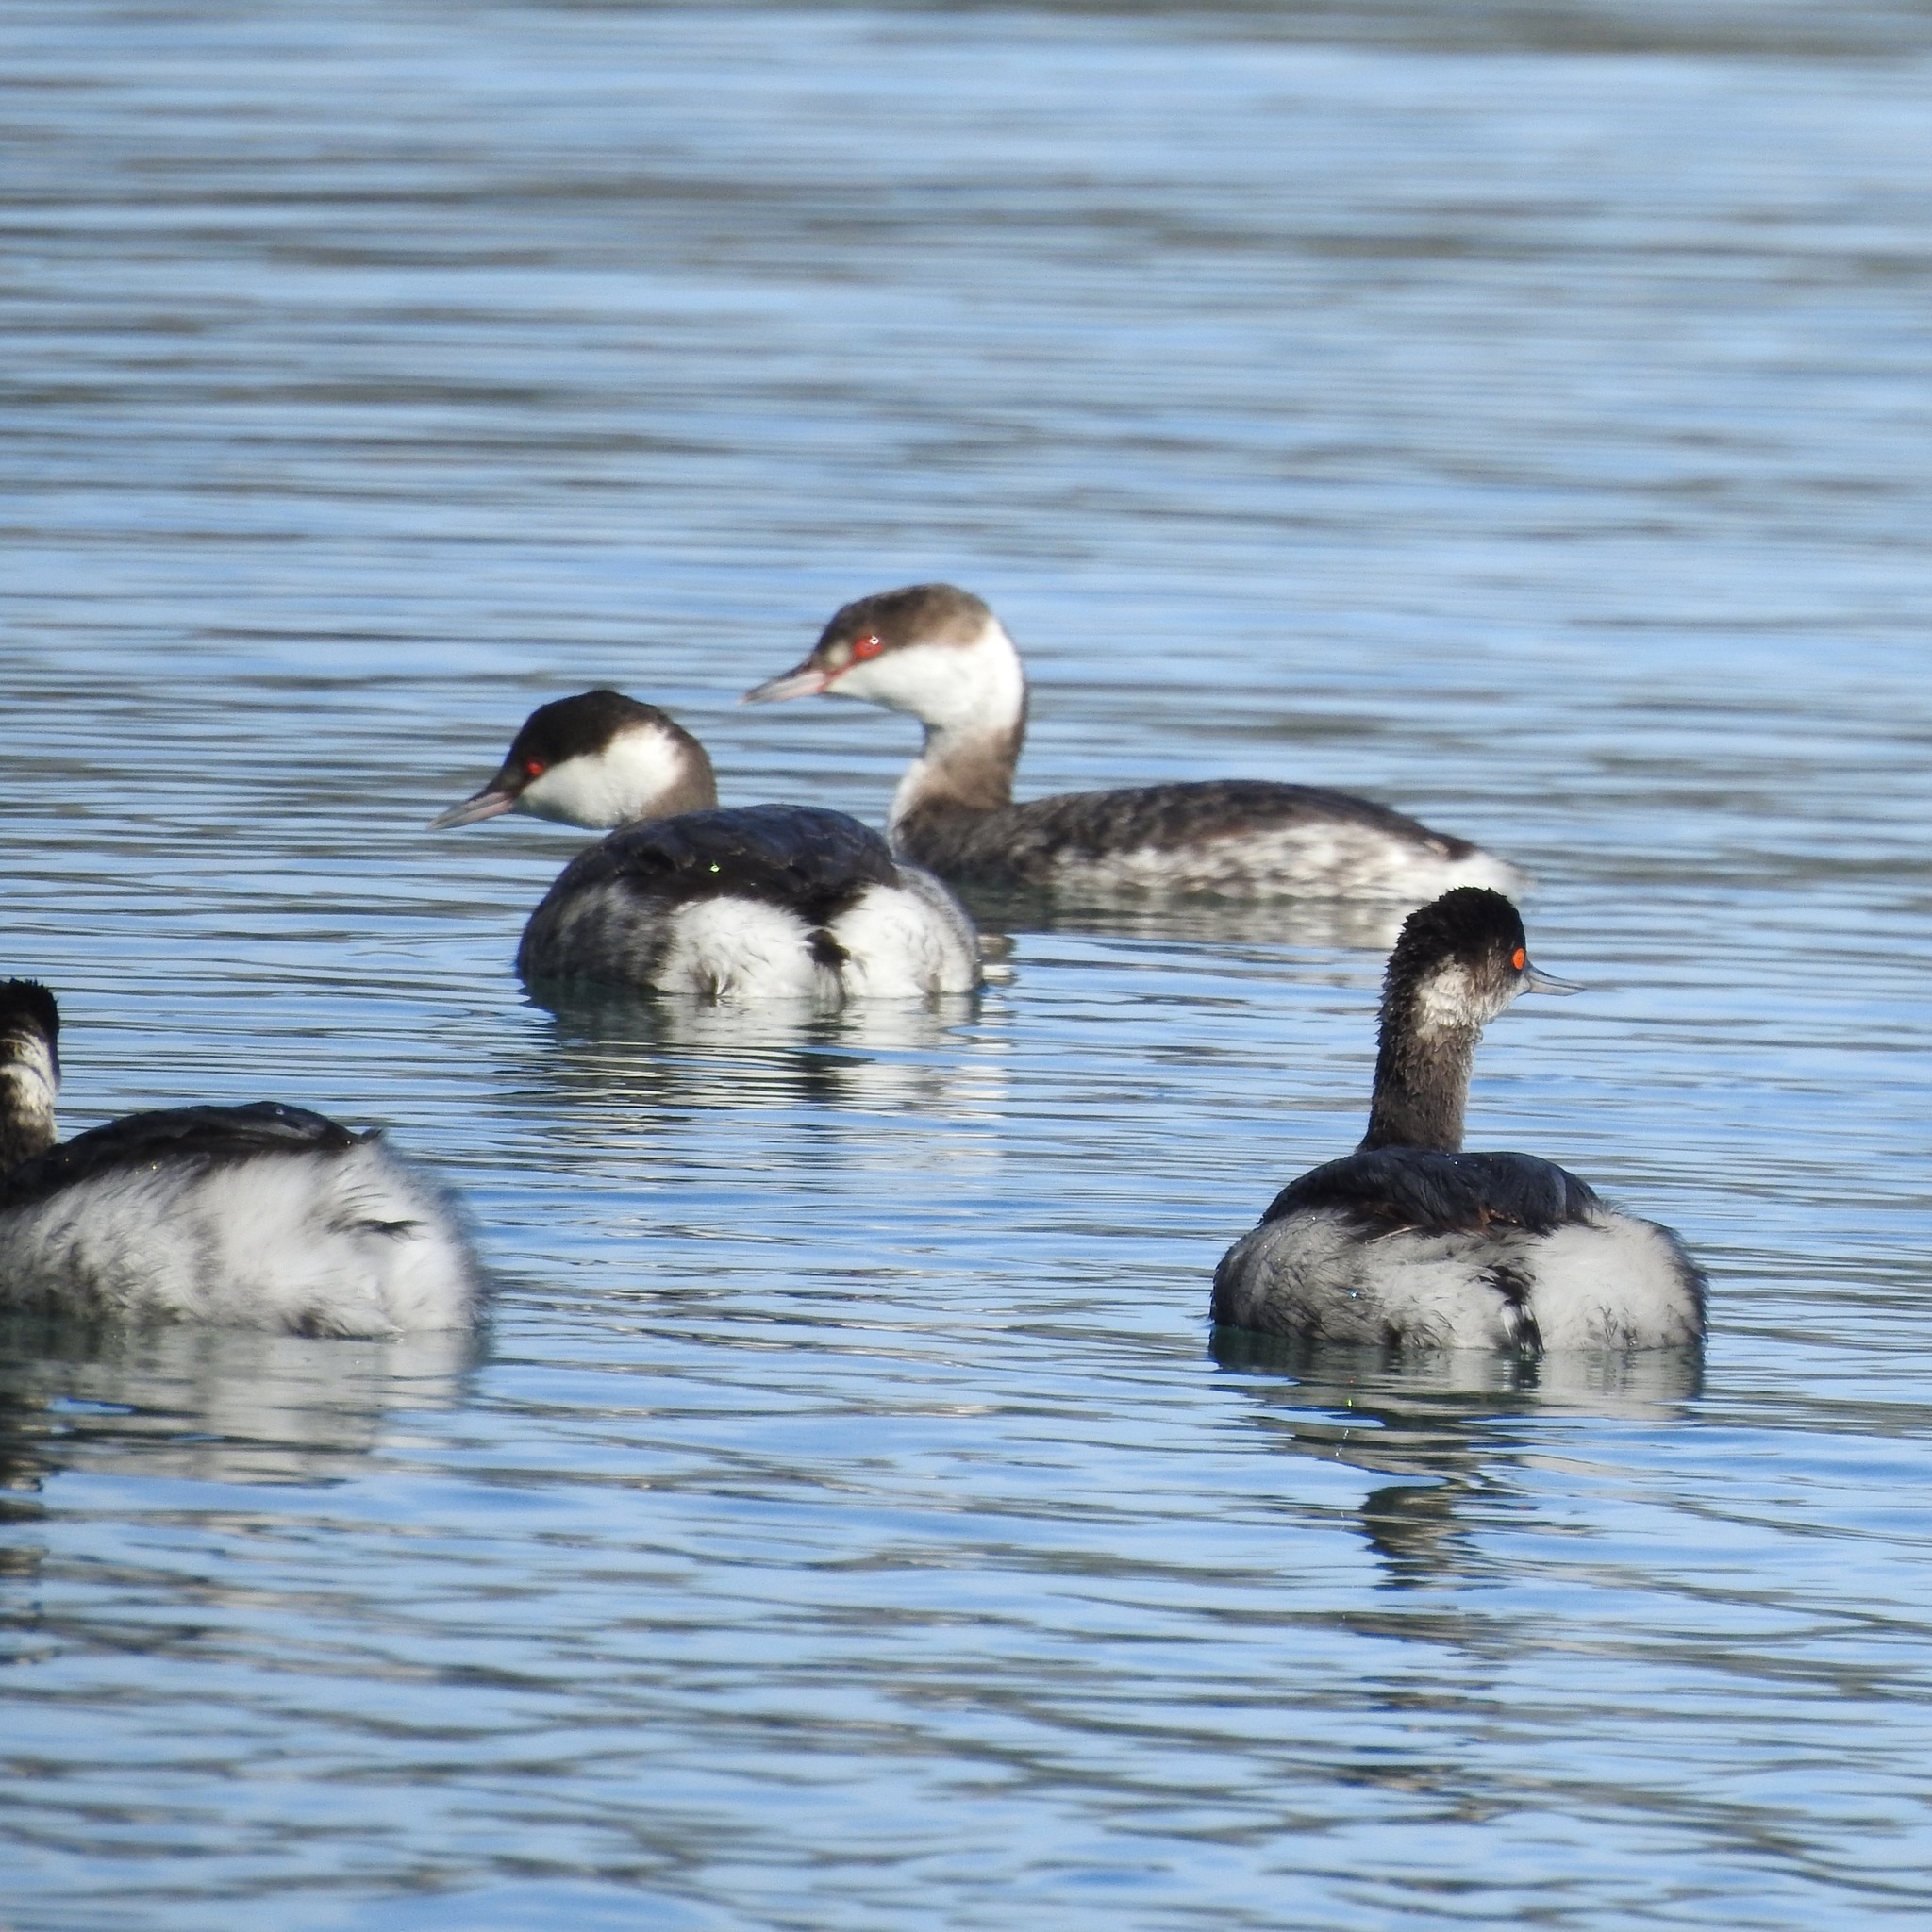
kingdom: Animalia
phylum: Chordata
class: Aves
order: Podicipediformes
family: Podicipedidae
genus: Podiceps
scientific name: Podiceps nigricollis
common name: Black-necked grebe
